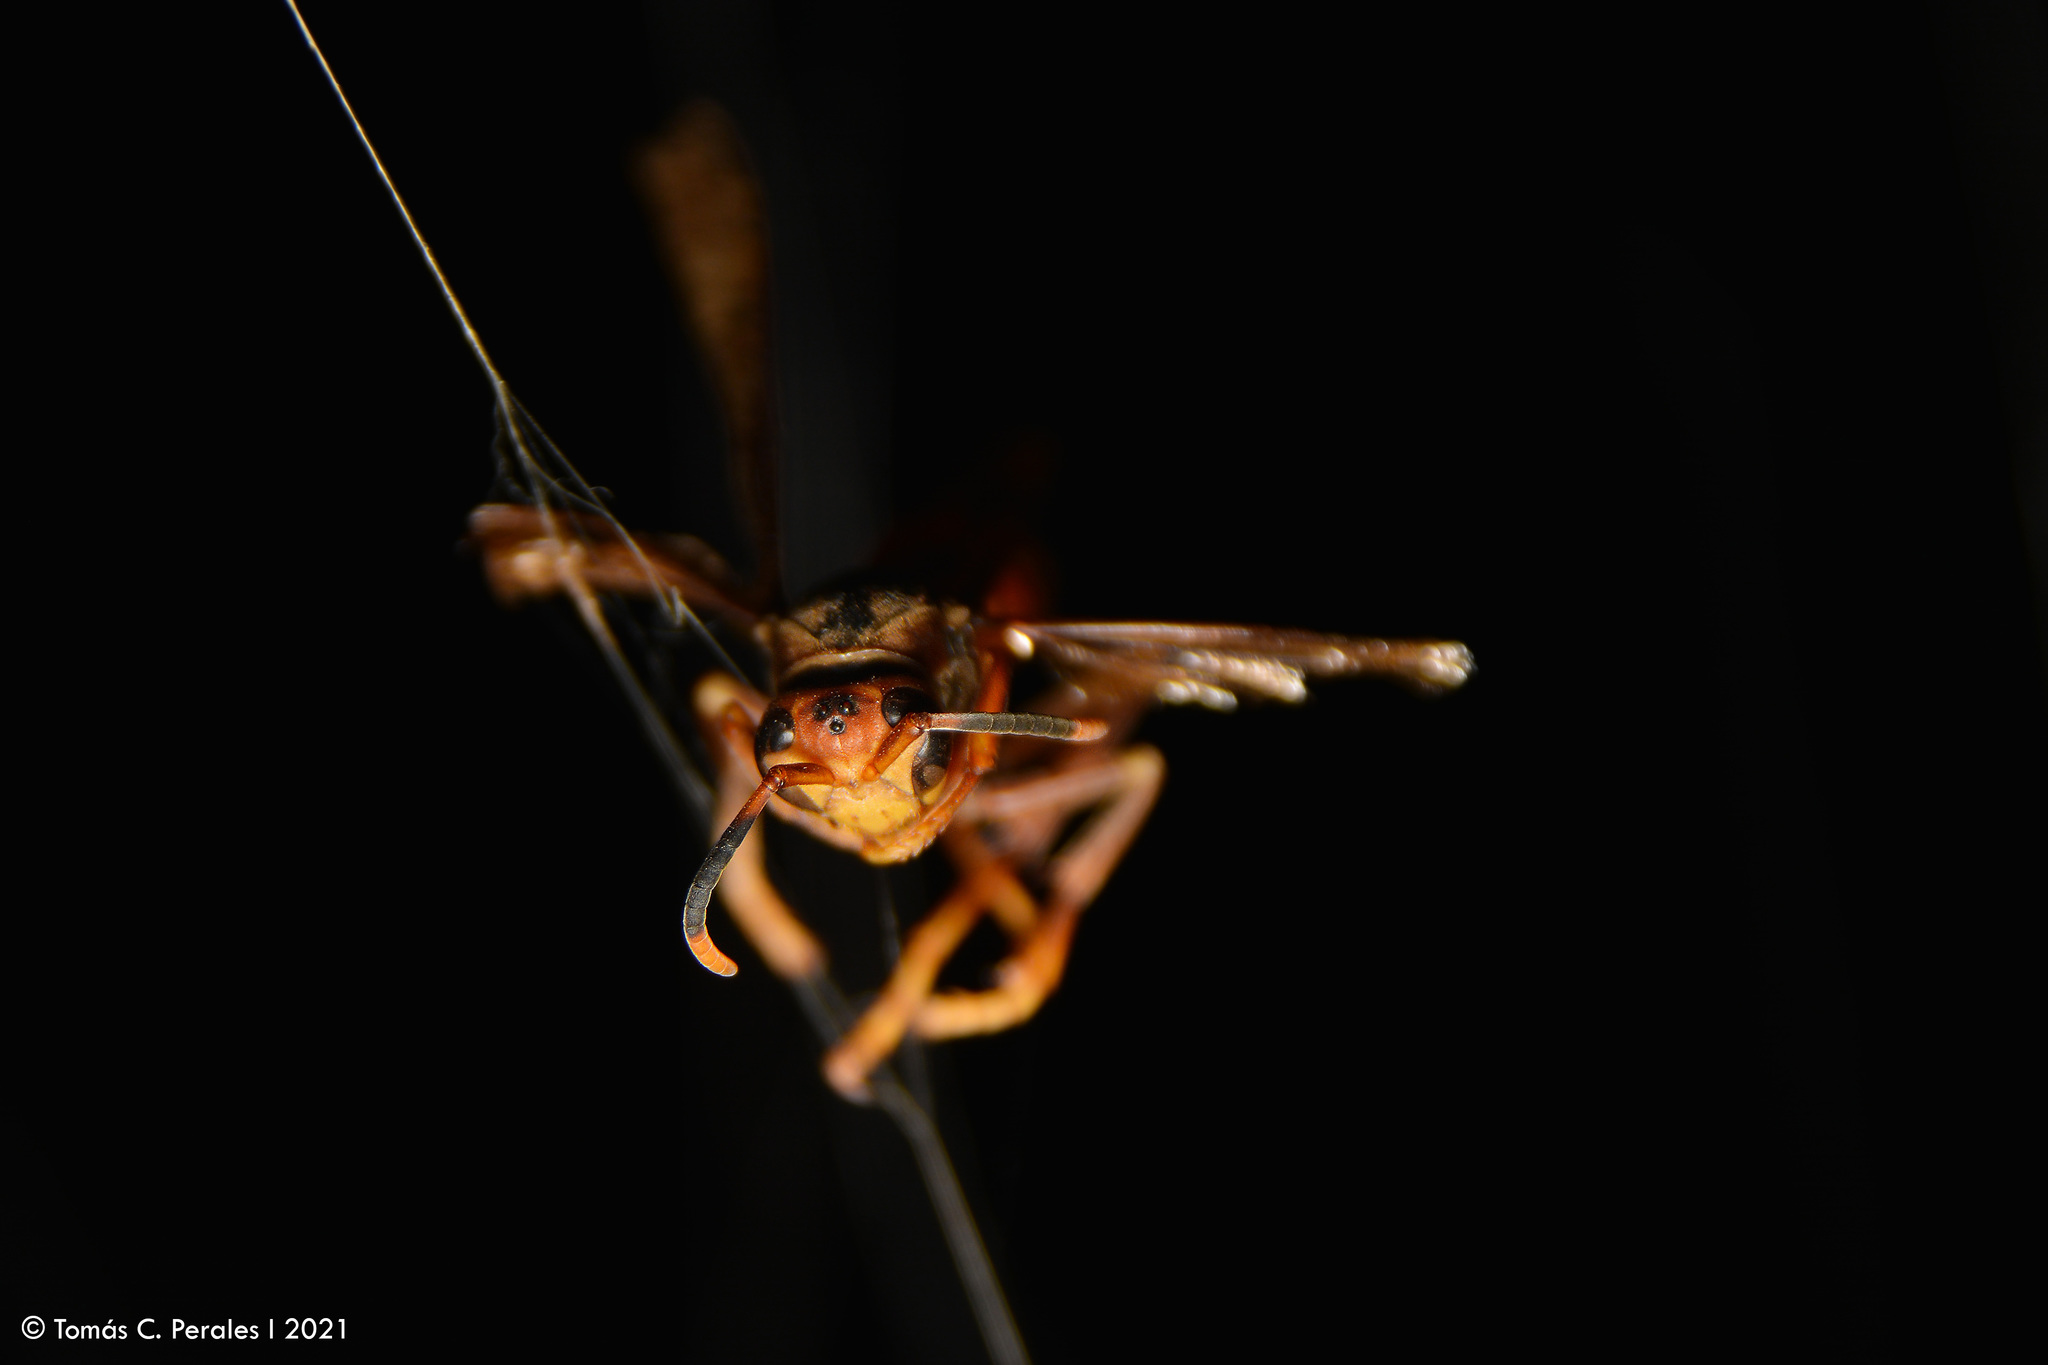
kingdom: Animalia
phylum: Arthropoda
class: Insecta
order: Hymenoptera
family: Pompilidae
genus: Aphanilopterus
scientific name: Aphanilopterus
